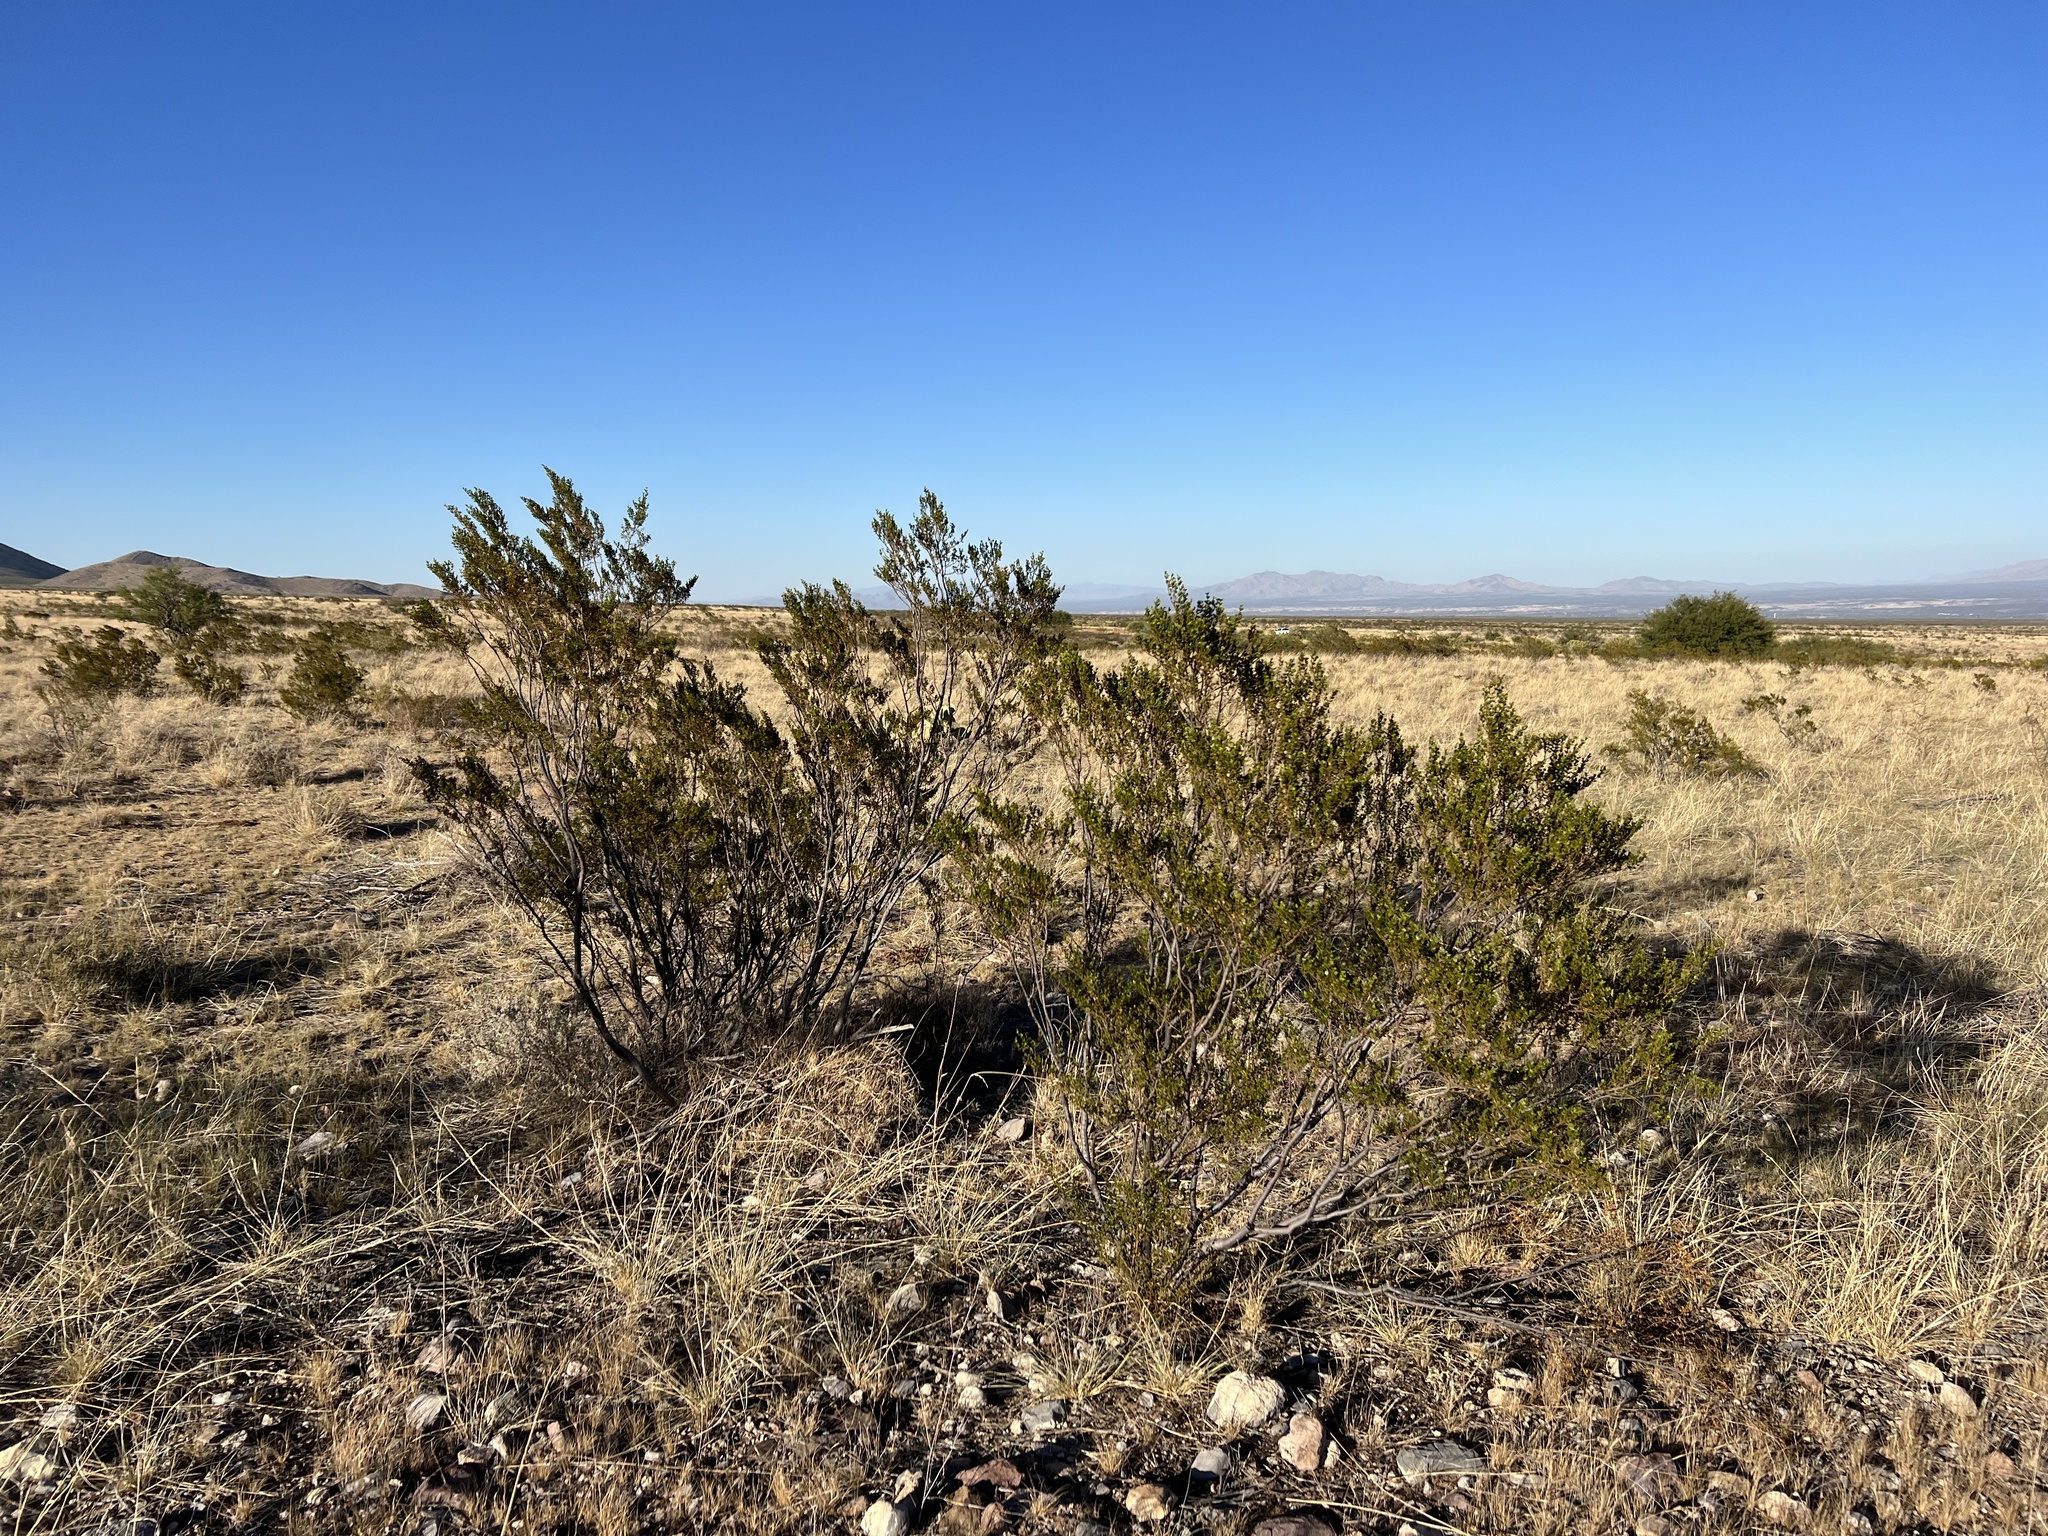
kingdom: Plantae
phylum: Tracheophyta
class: Magnoliopsida
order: Zygophyllales
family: Zygophyllaceae
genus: Larrea
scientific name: Larrea tridentata
